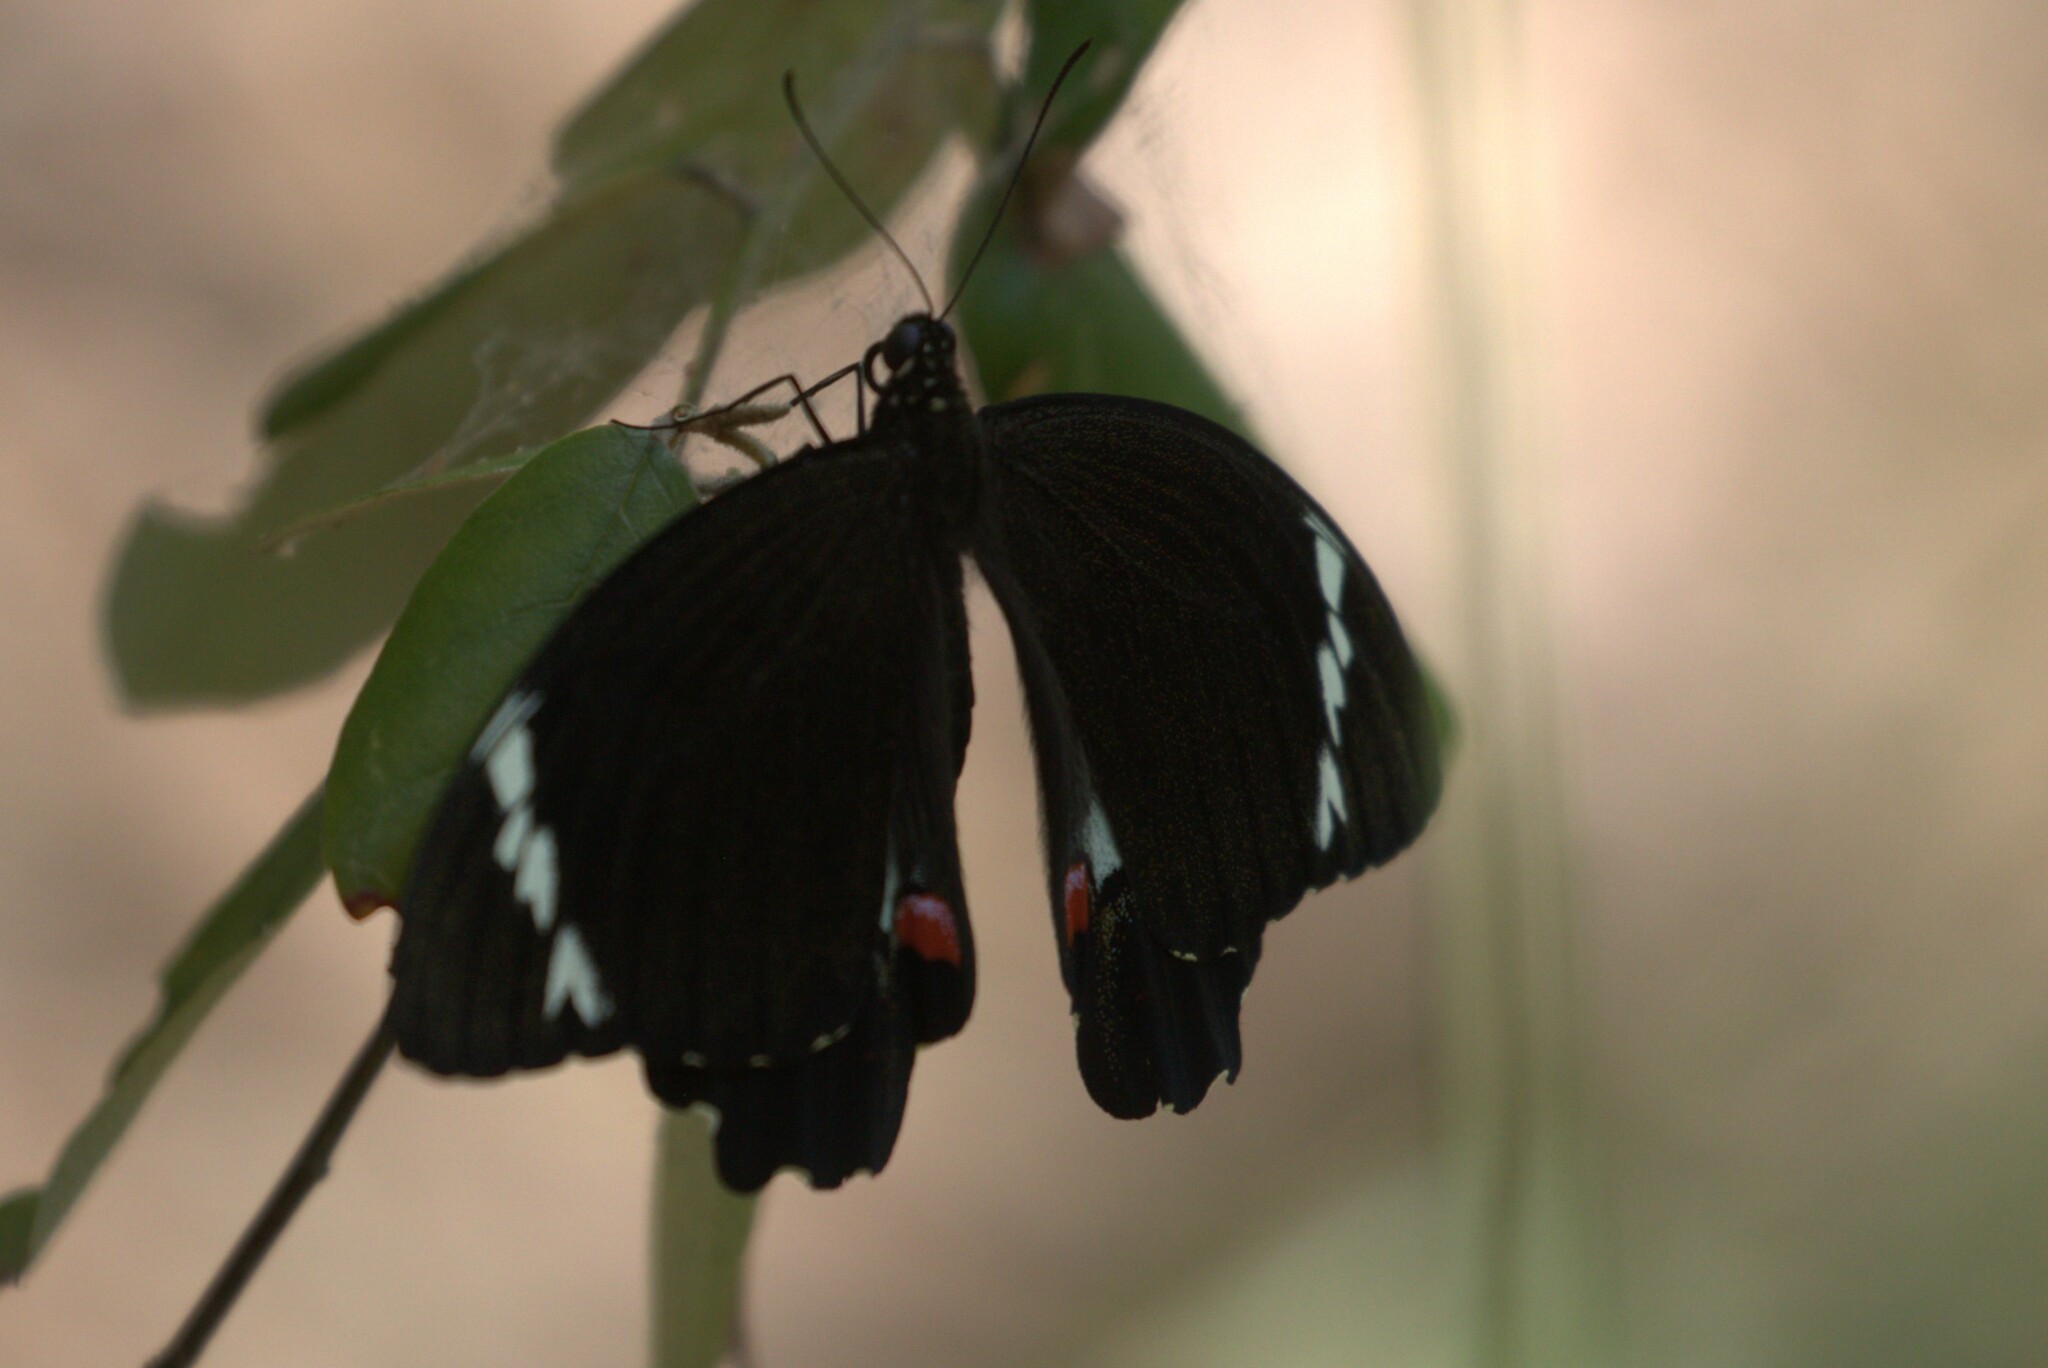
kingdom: Animalia
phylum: Arthropoda
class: Insecta
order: Lepidoptera
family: Papilionidae
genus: Papilio
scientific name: Papilio aegeus
